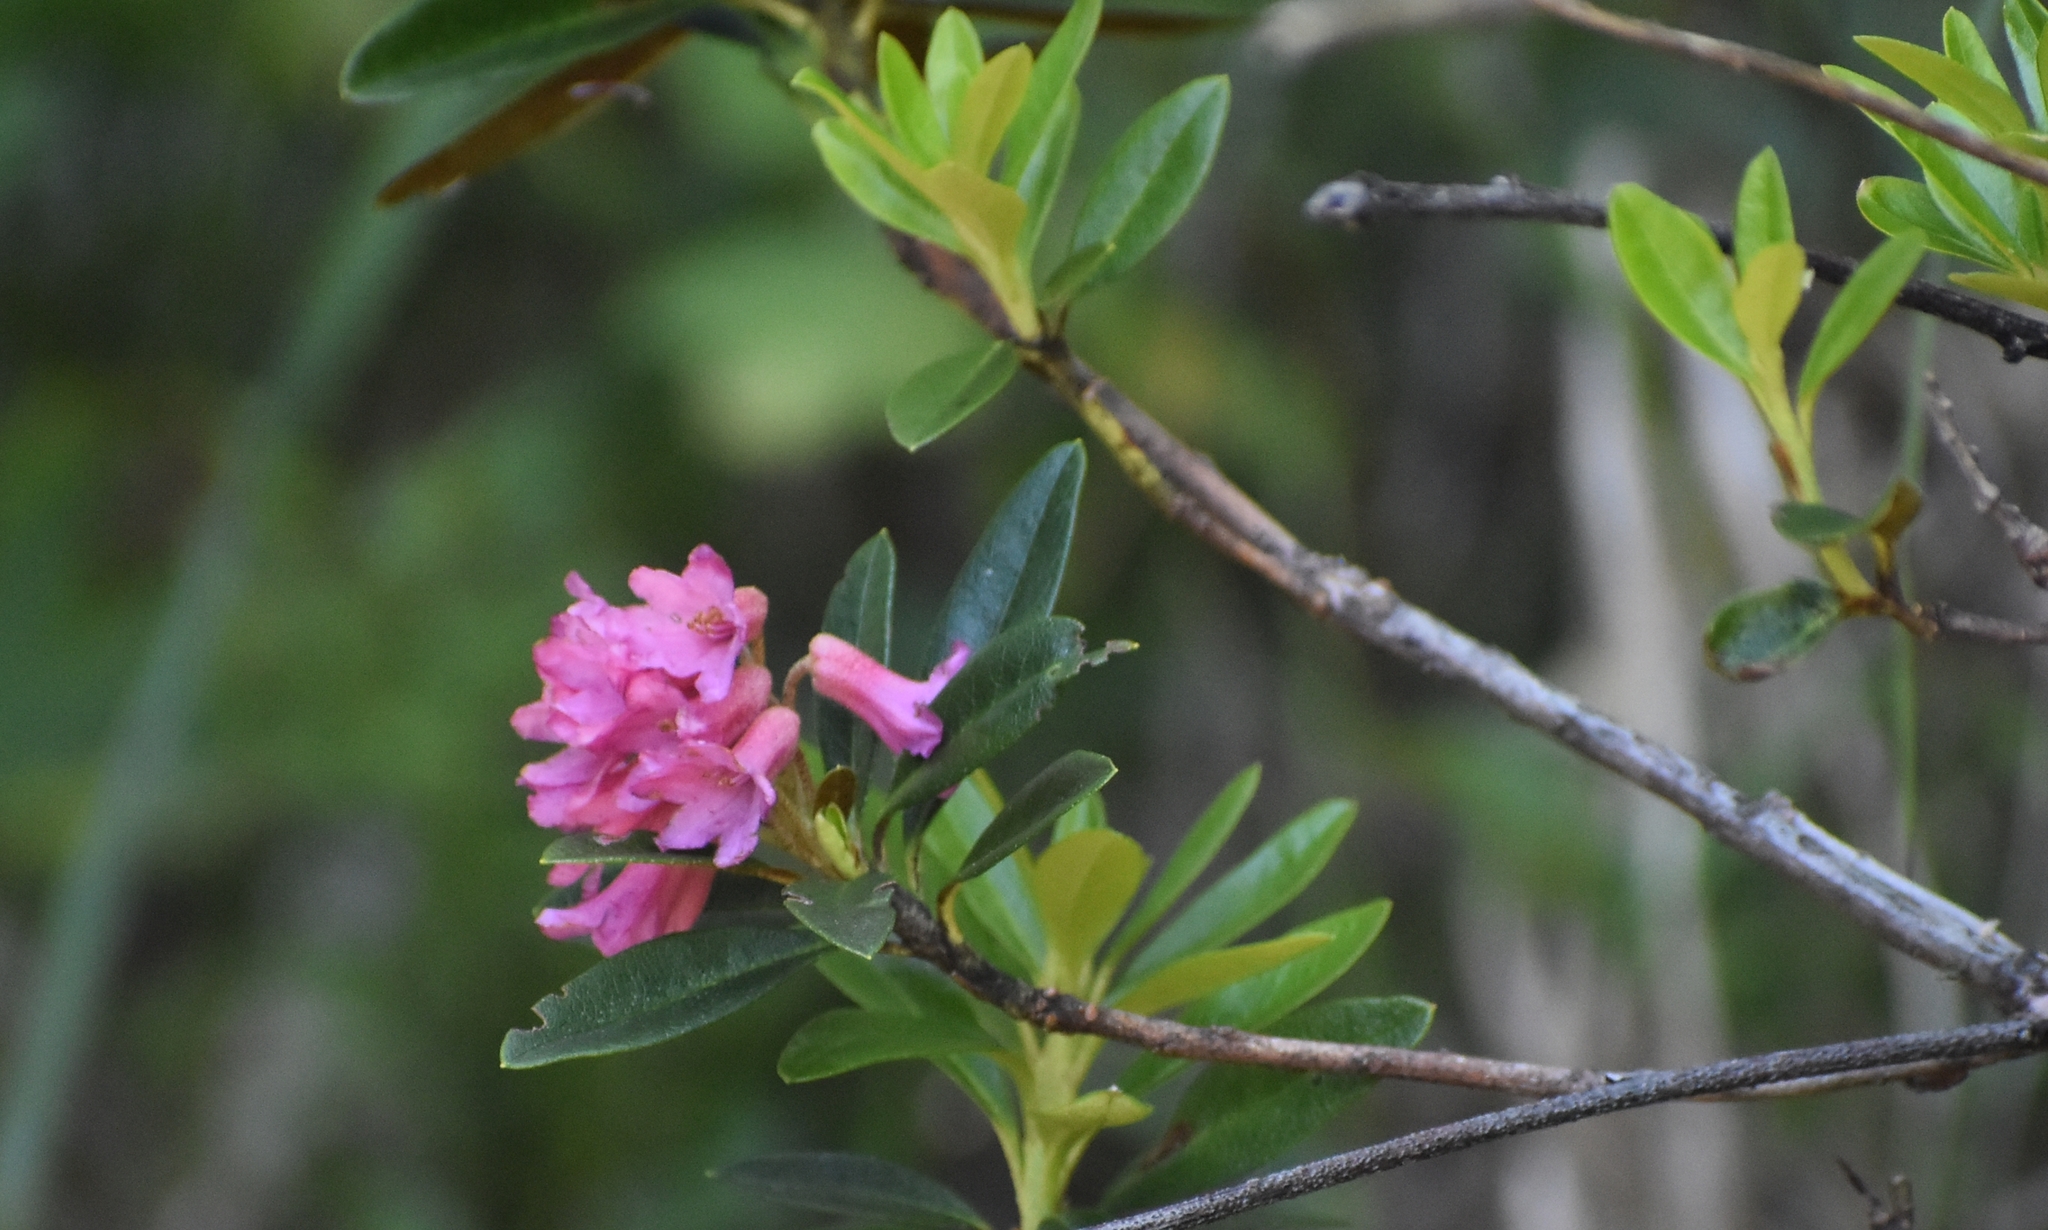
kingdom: Plantae
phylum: Tracheophyta
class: Magnoliopsida
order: Ericales
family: Ericaceae
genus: Rhododendron
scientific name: Rhododendron ferrugineum
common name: Alpenrose
